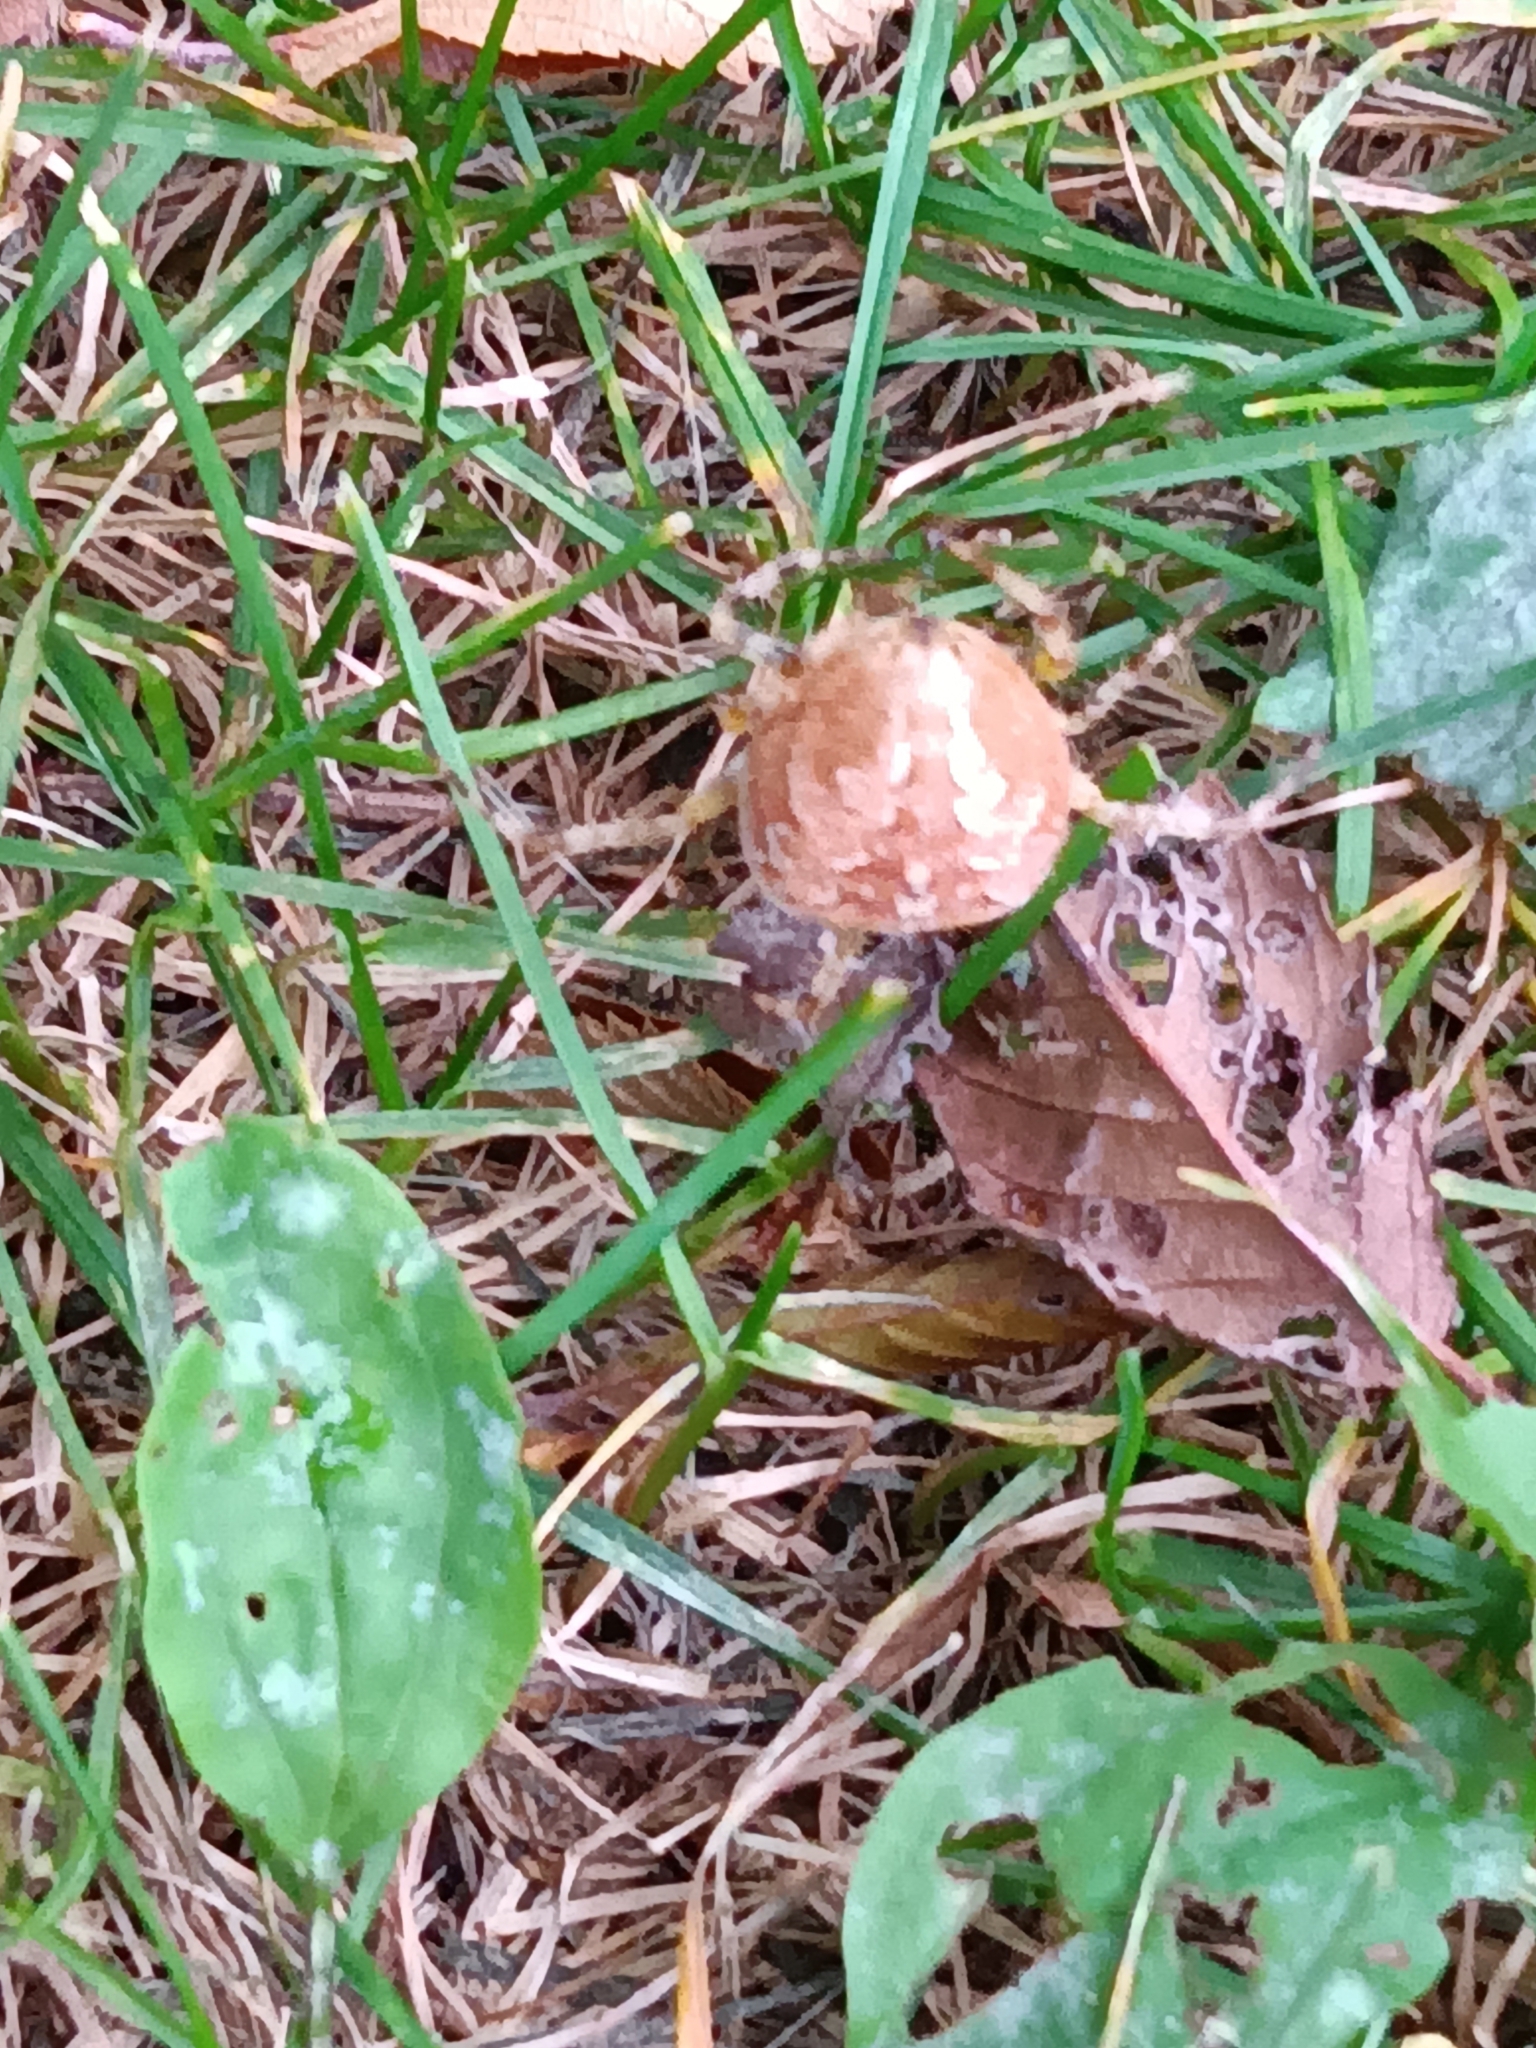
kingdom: Animalia
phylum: Arthropoda
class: Arachnida
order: Araneae
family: Araneidae
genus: Araneus
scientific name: Araneus diadematus
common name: Cross orbweaver
